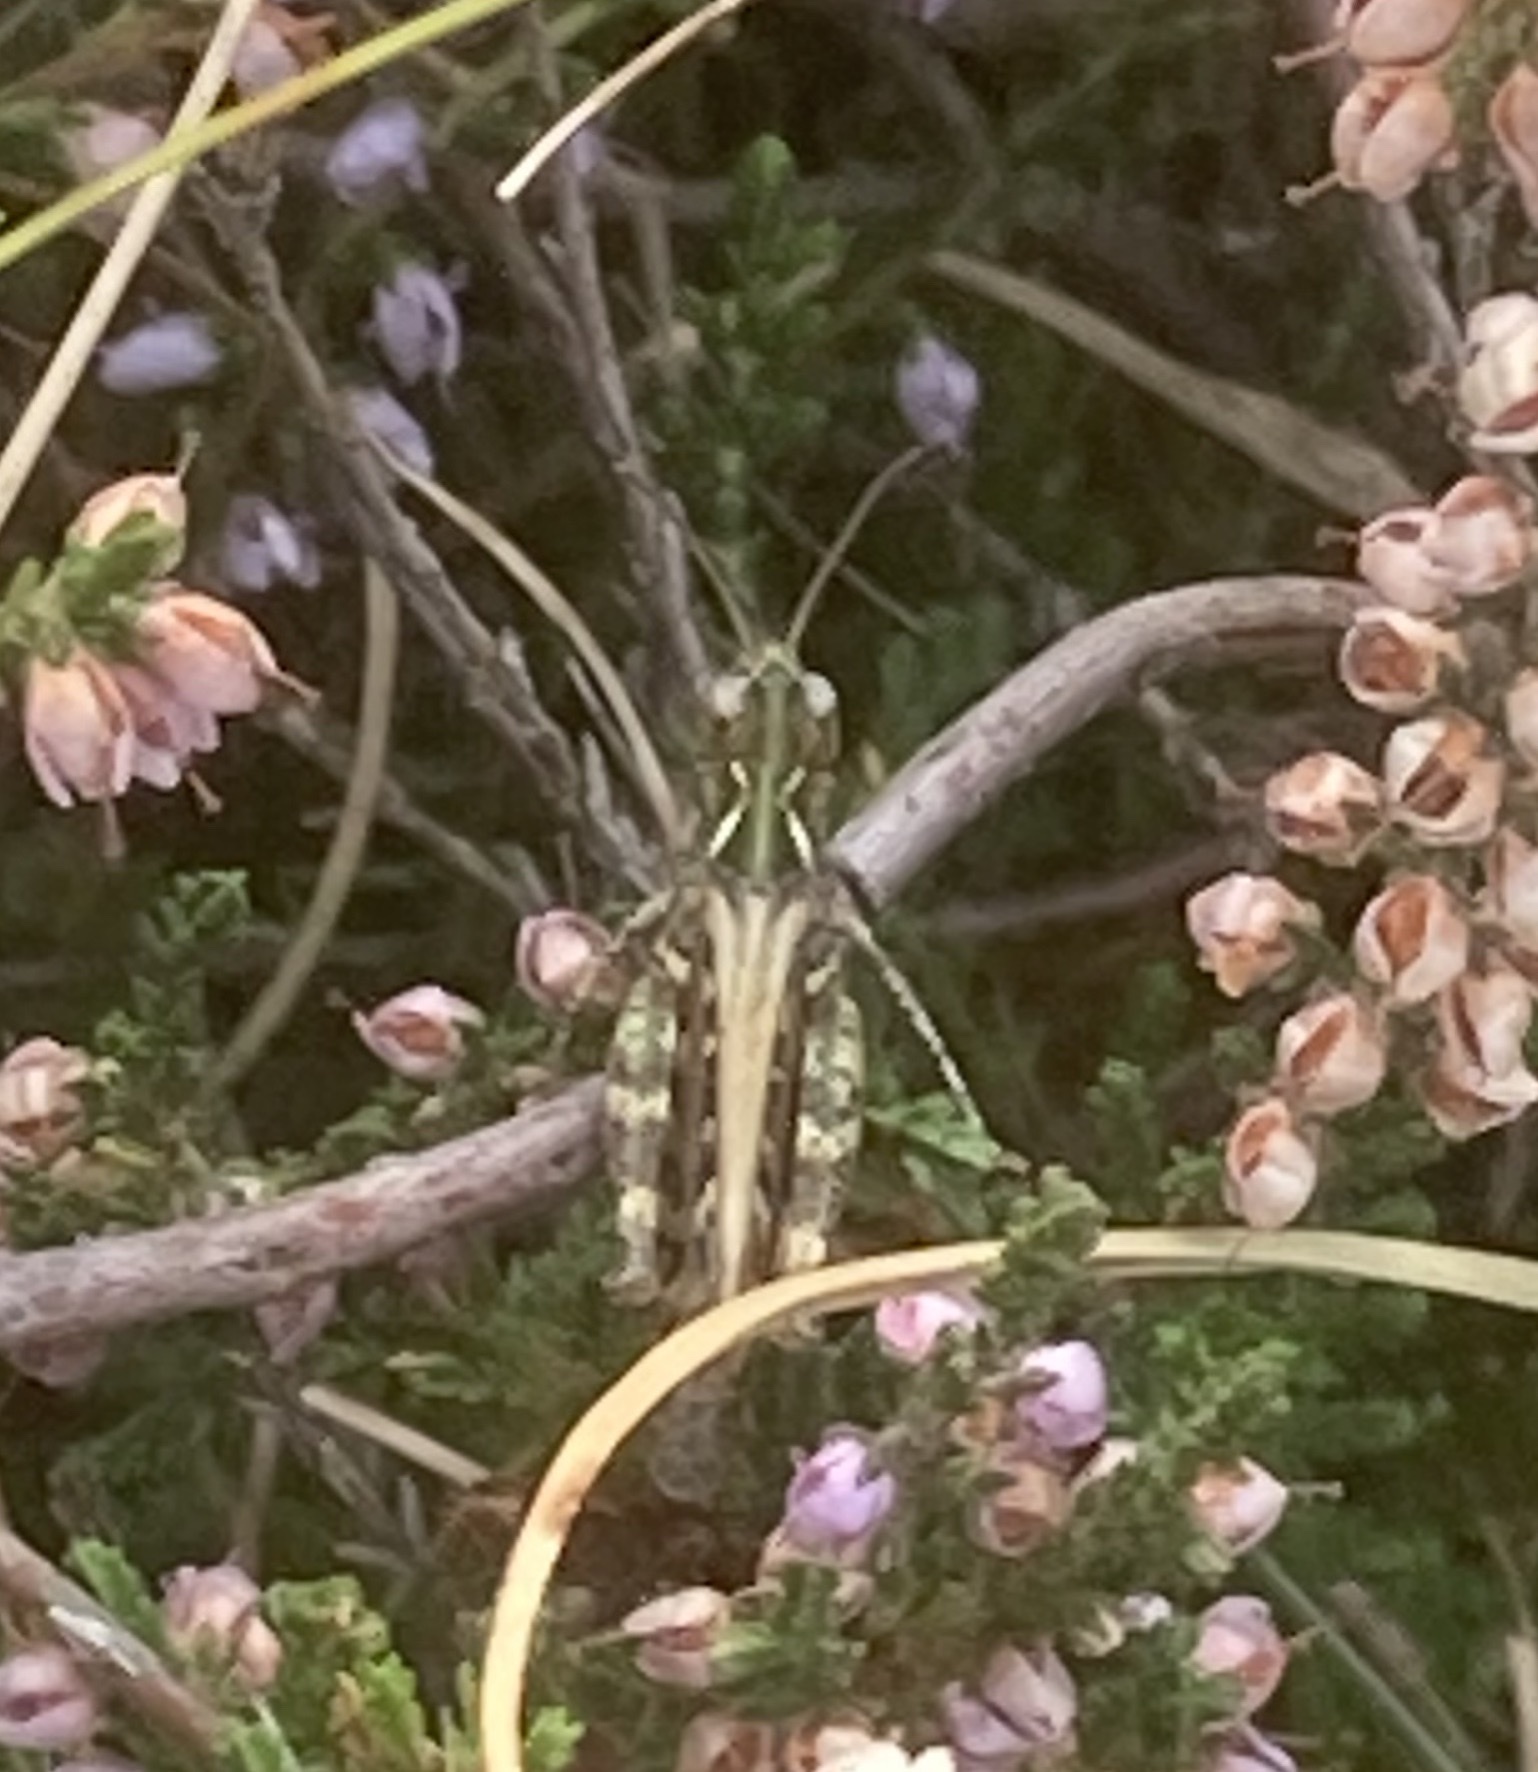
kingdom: Animalia
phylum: Arthropoda
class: Insecta
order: Orthoptera
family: Acrididae
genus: Myrmeleotettix
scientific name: Myrmeleotettix maculatus
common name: Mottled grasshopper
